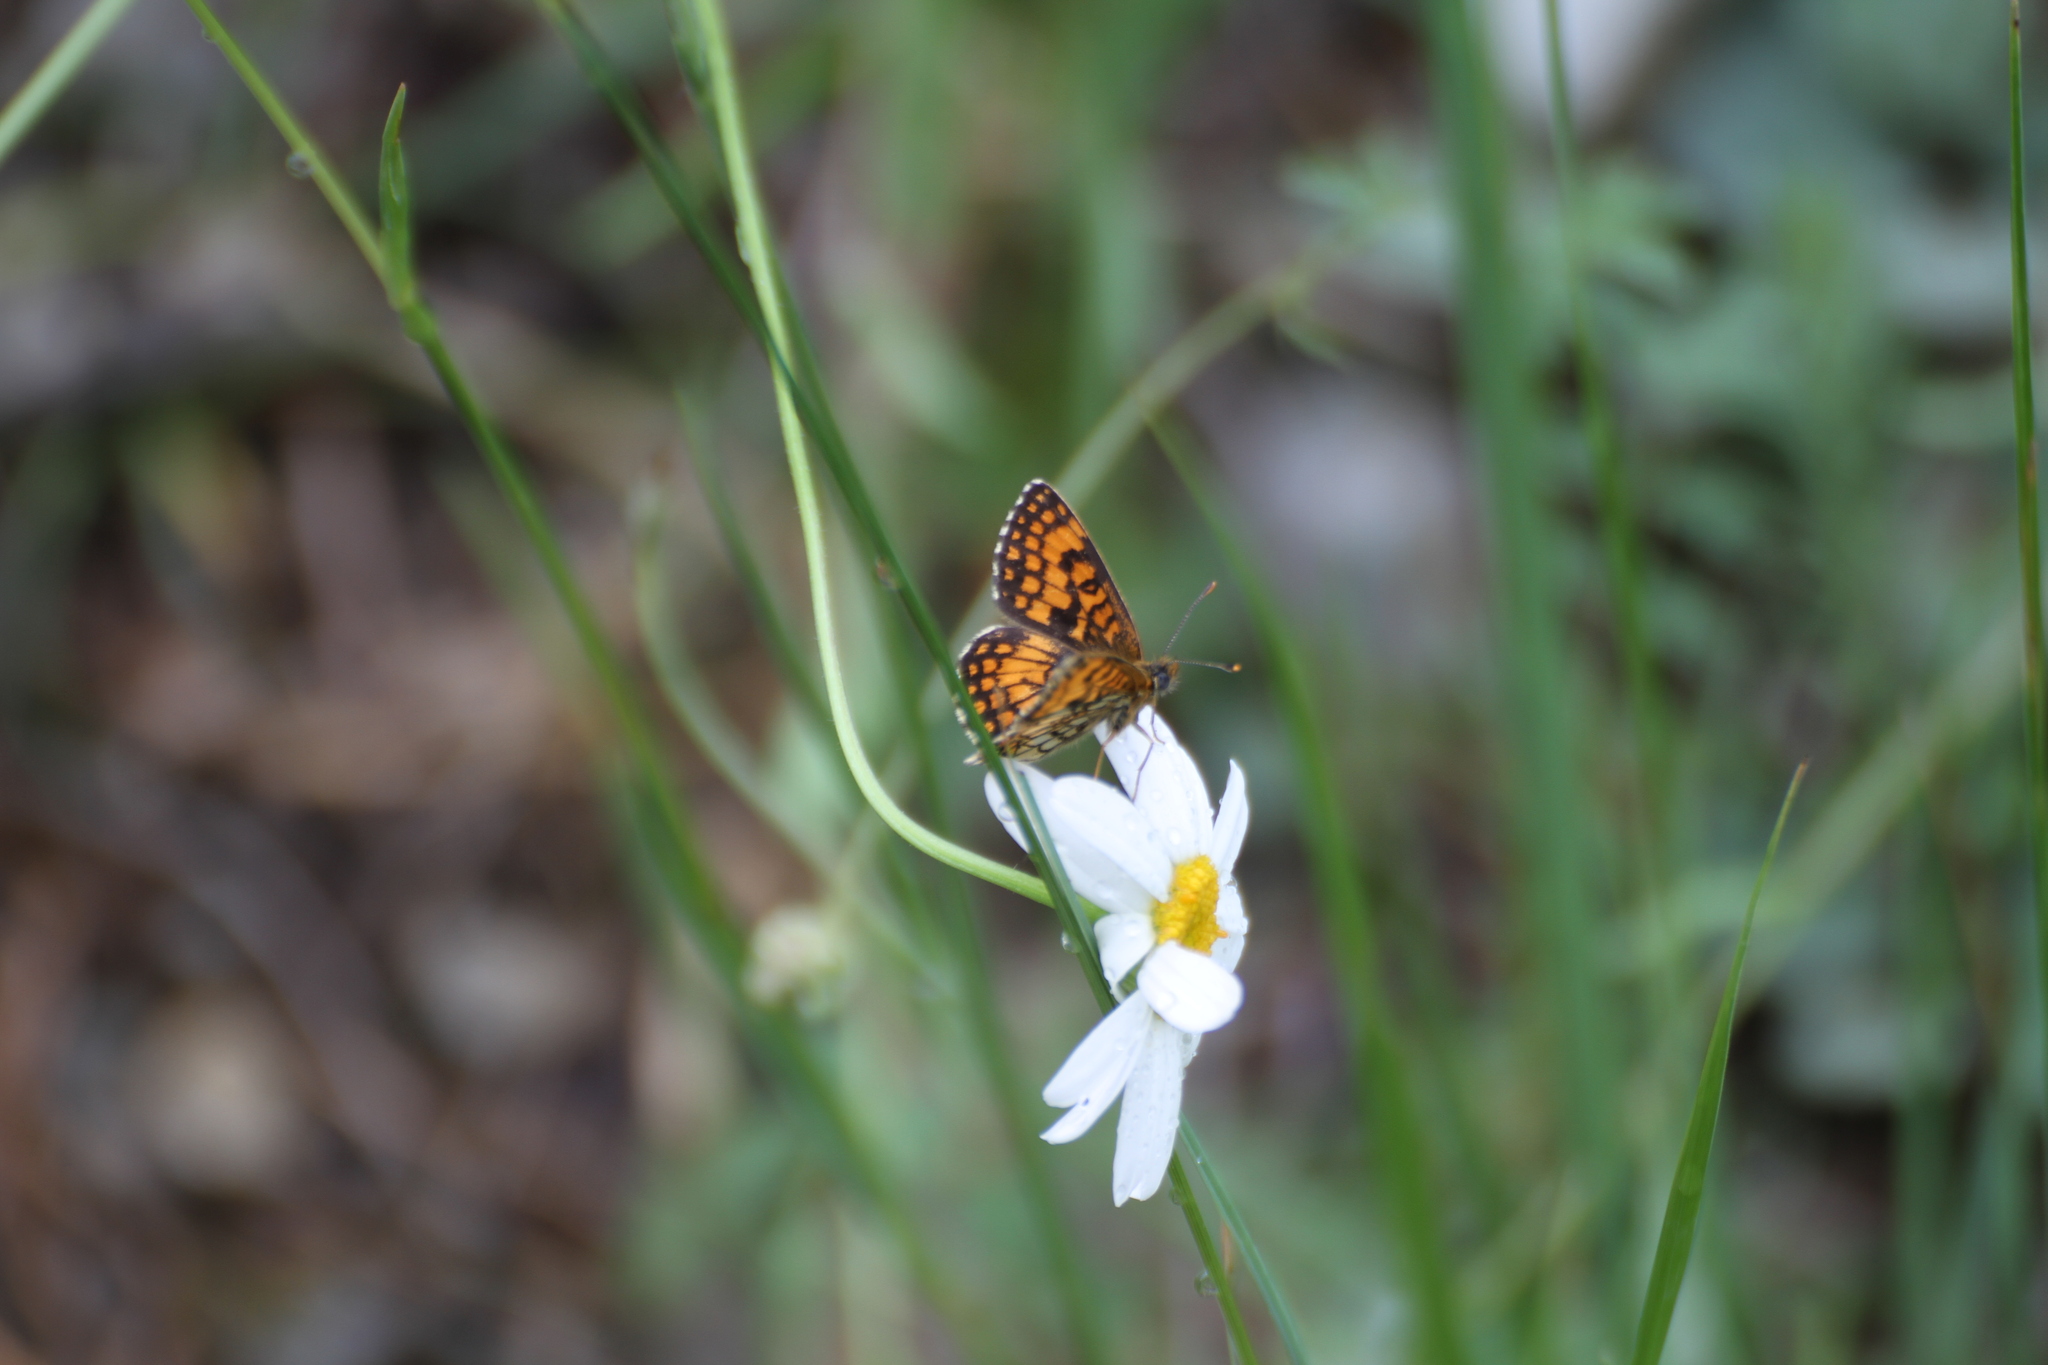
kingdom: Animalia
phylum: Arthropoda
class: Insecta
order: Lepidoptera
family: Nymphalidae
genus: Mellicta
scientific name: Mellicta athalia
